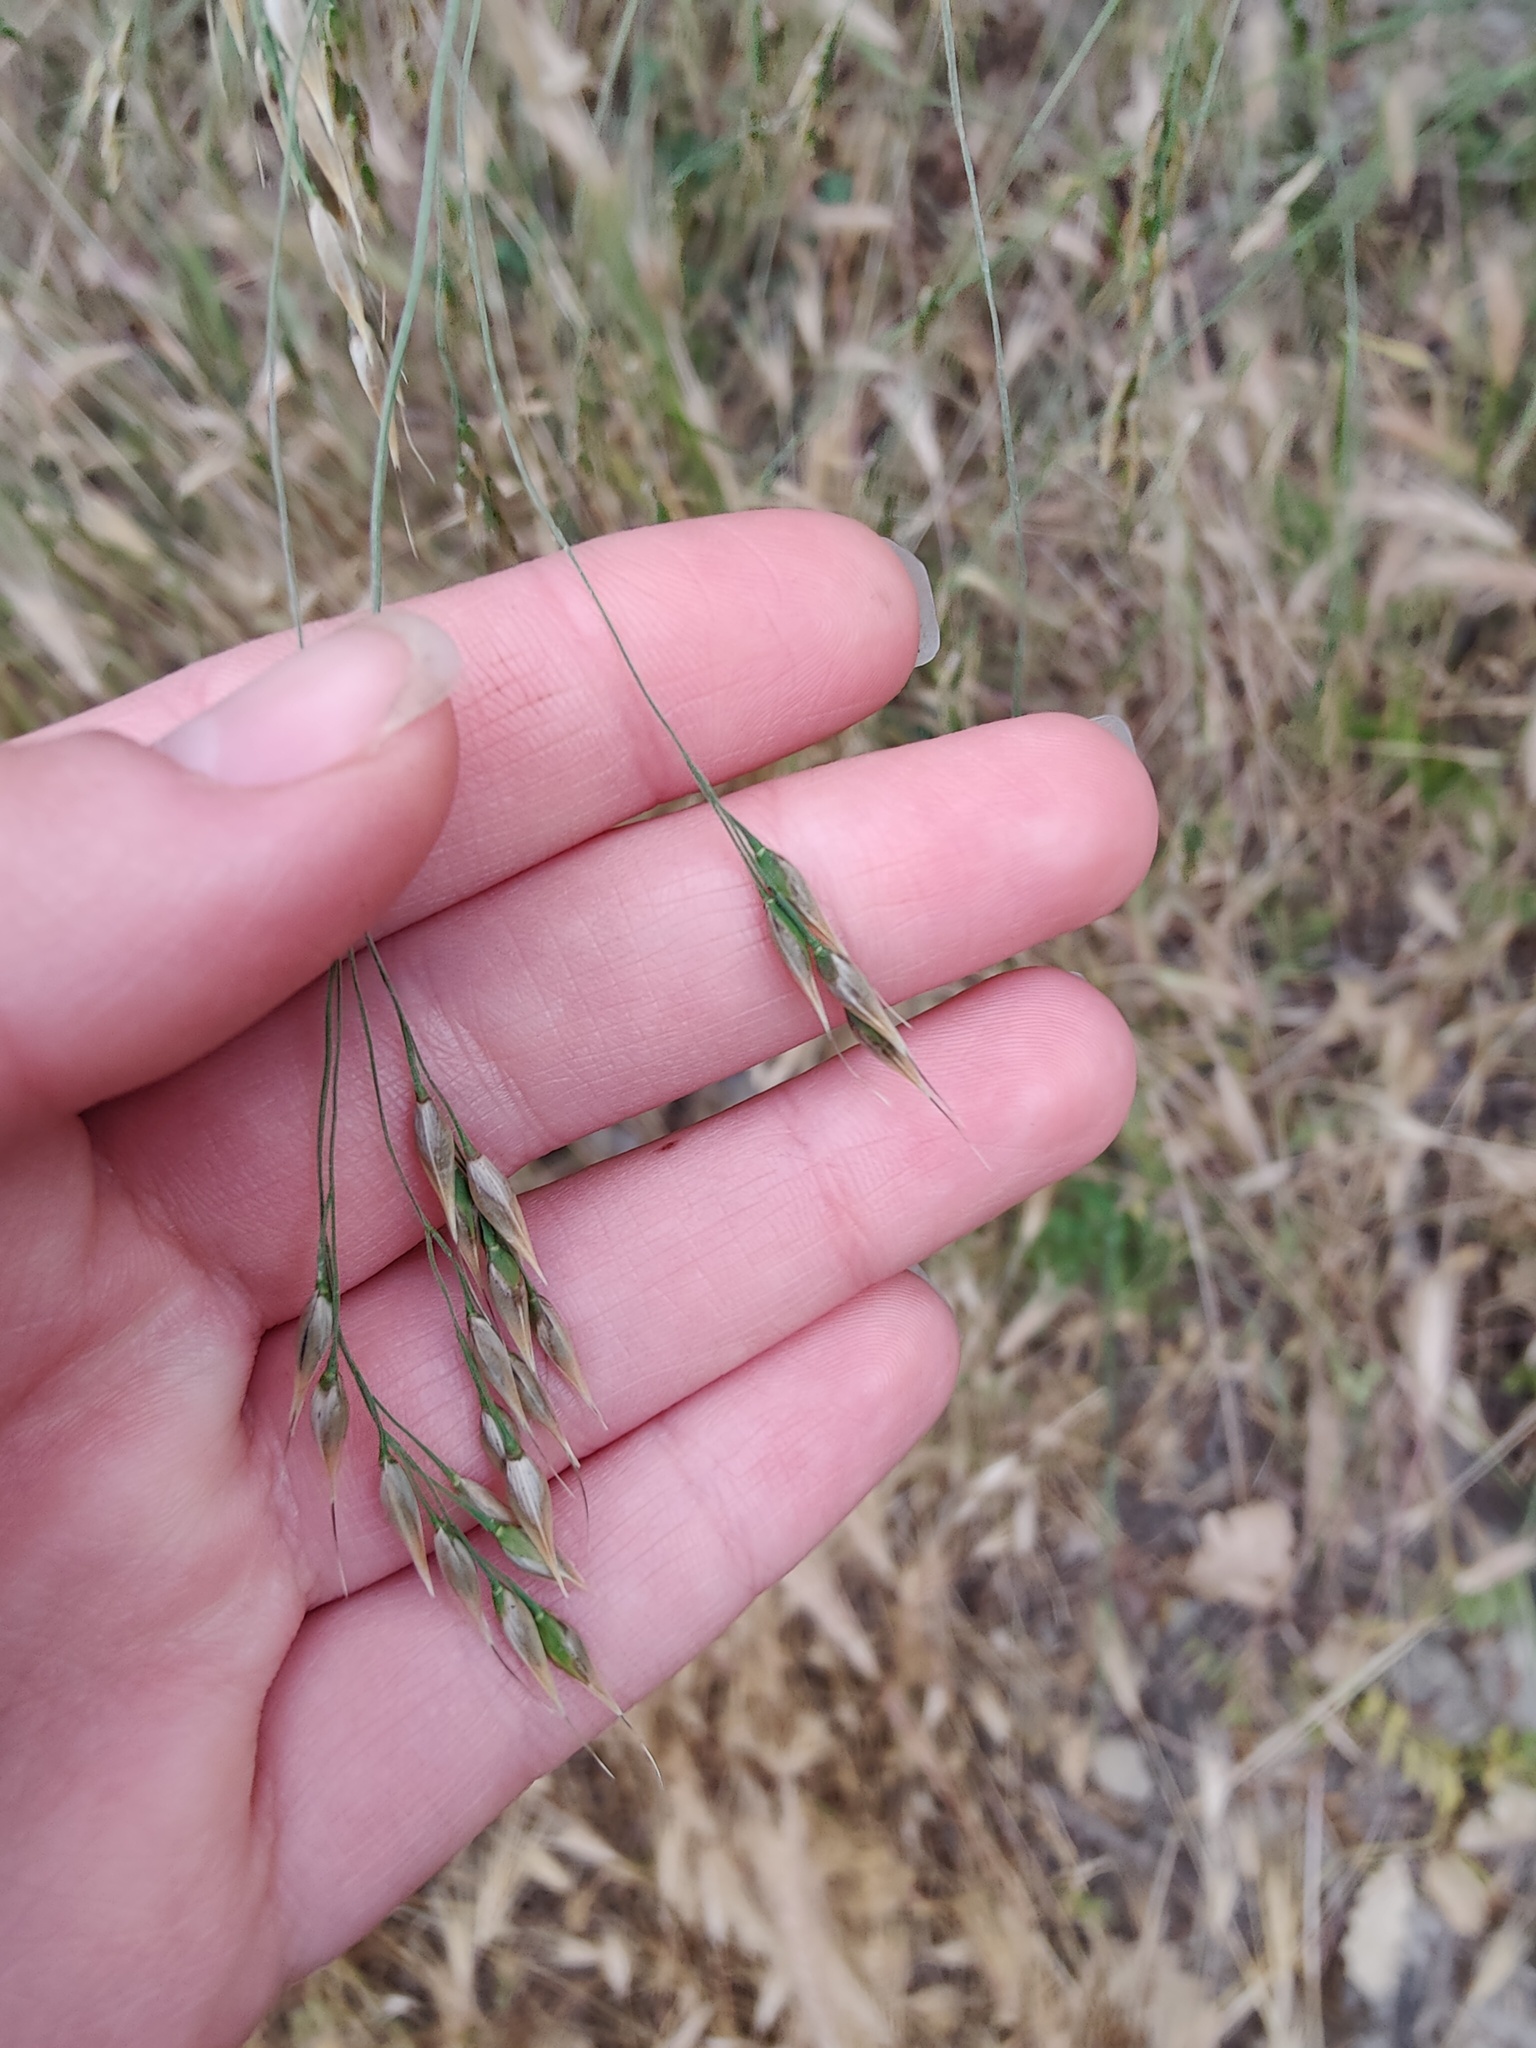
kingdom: Plantae
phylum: Tracheophyta
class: Liliopsida
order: Poales
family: Poaceae
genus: Piptatherum
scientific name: Piptatherum holciforme
